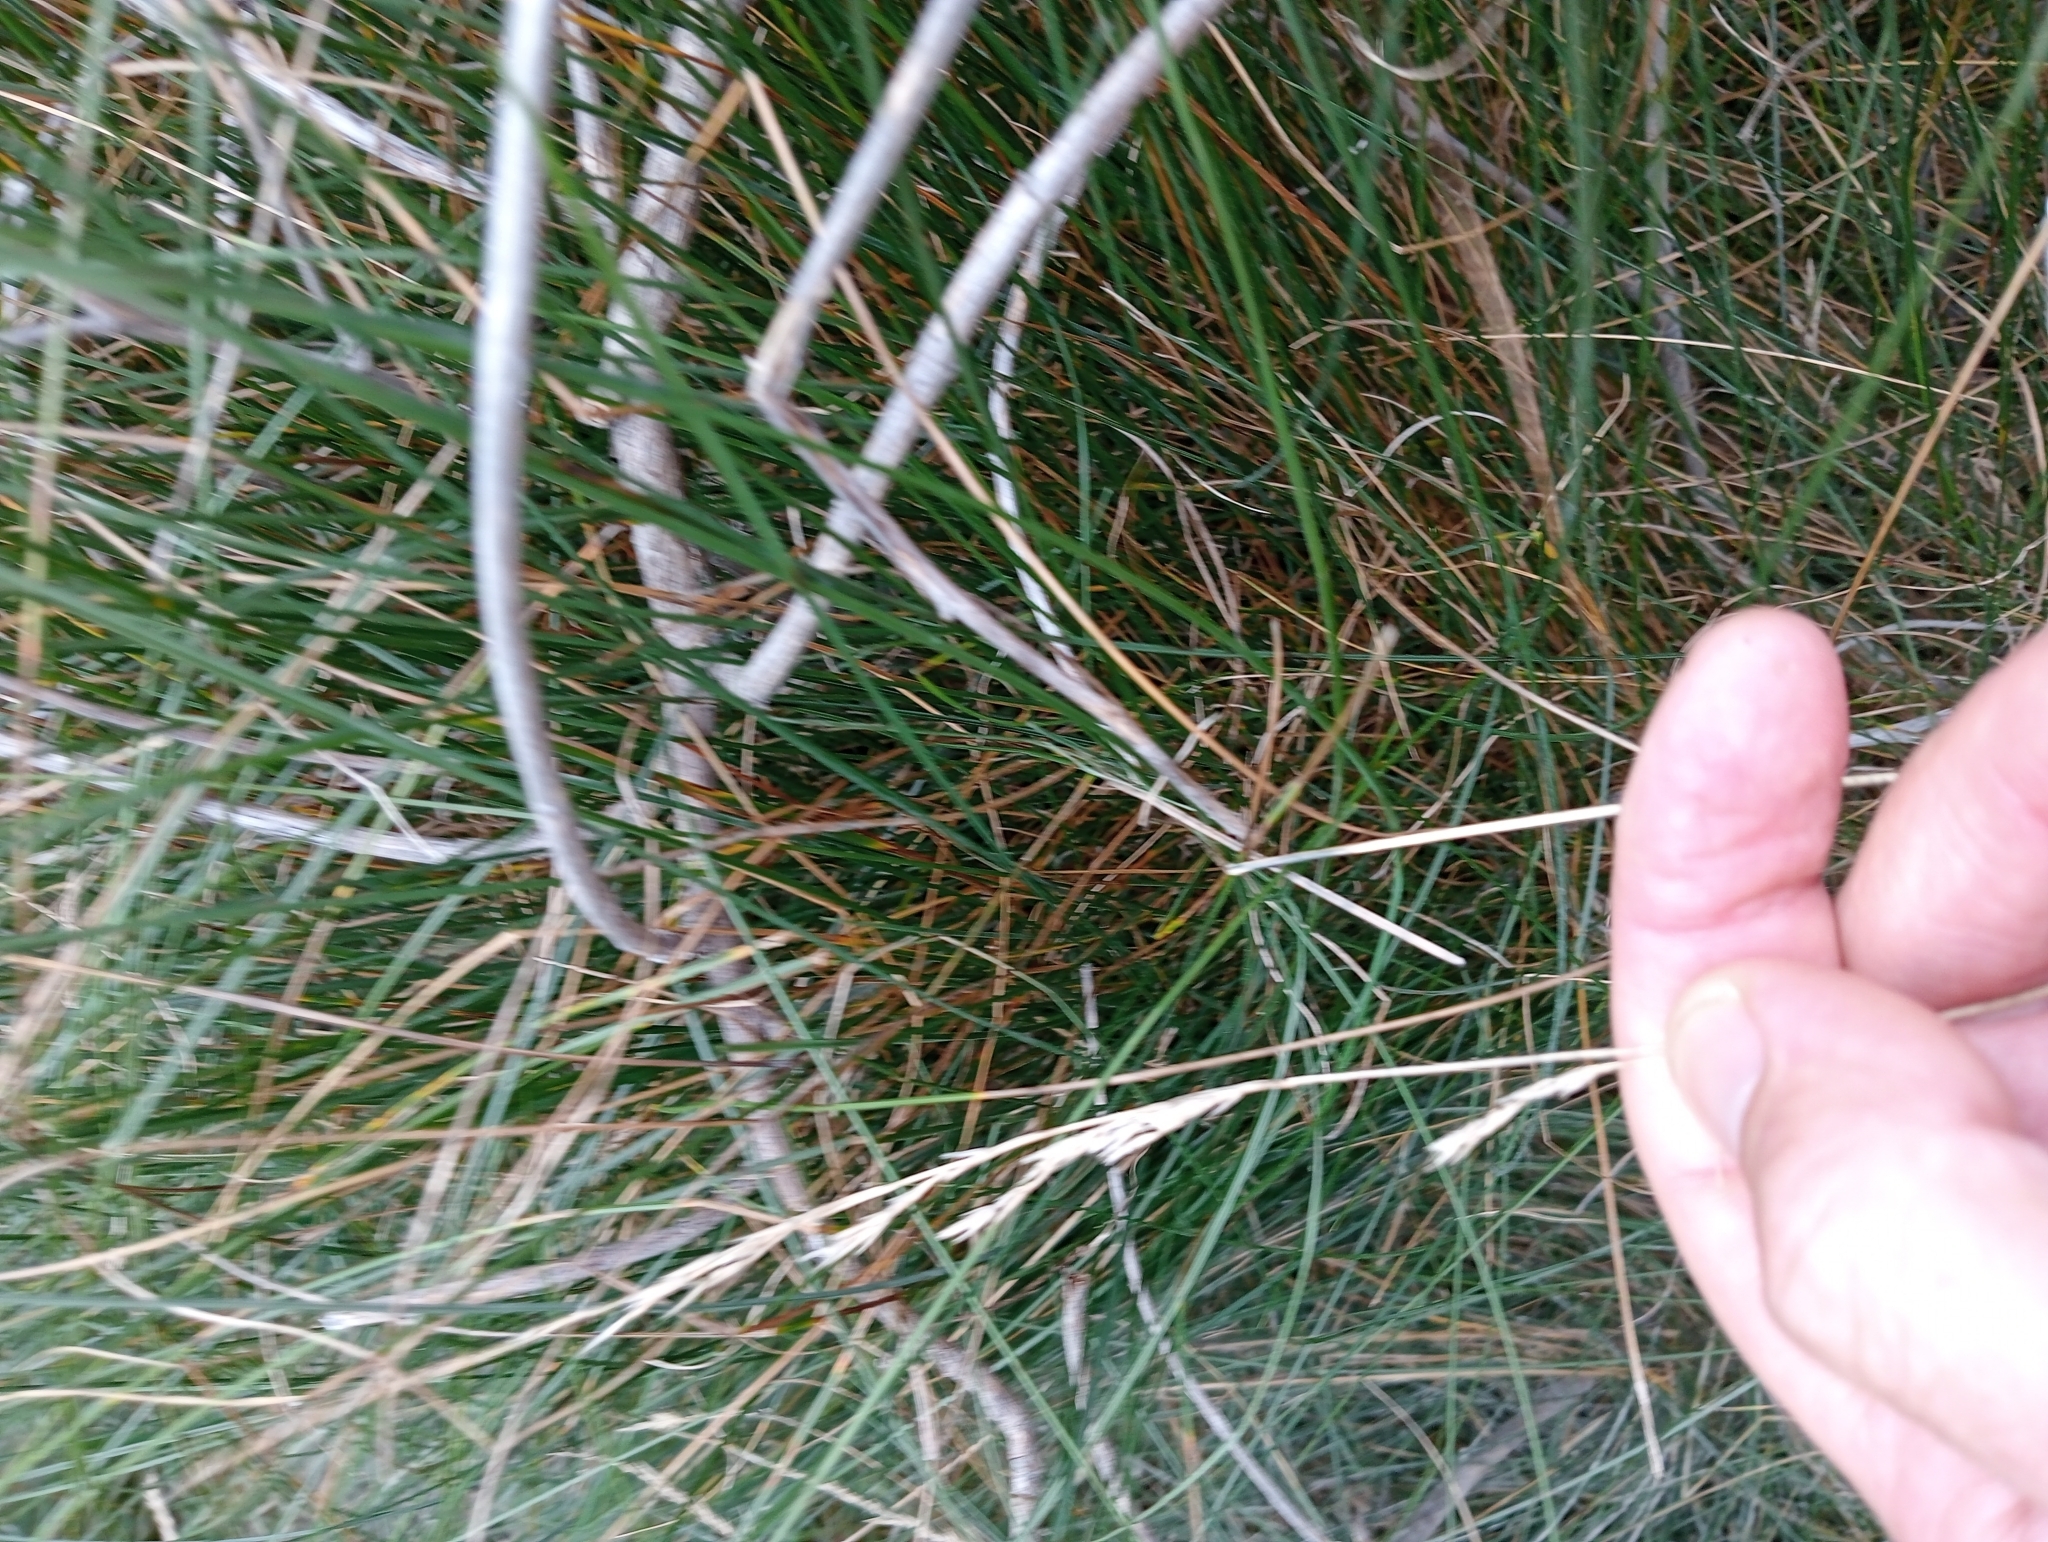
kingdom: Plantae
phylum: Tracheophyta
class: Liliopsida
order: Poales
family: Poaceae
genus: Festuca
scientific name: Festuca rubra
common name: Red fescue
